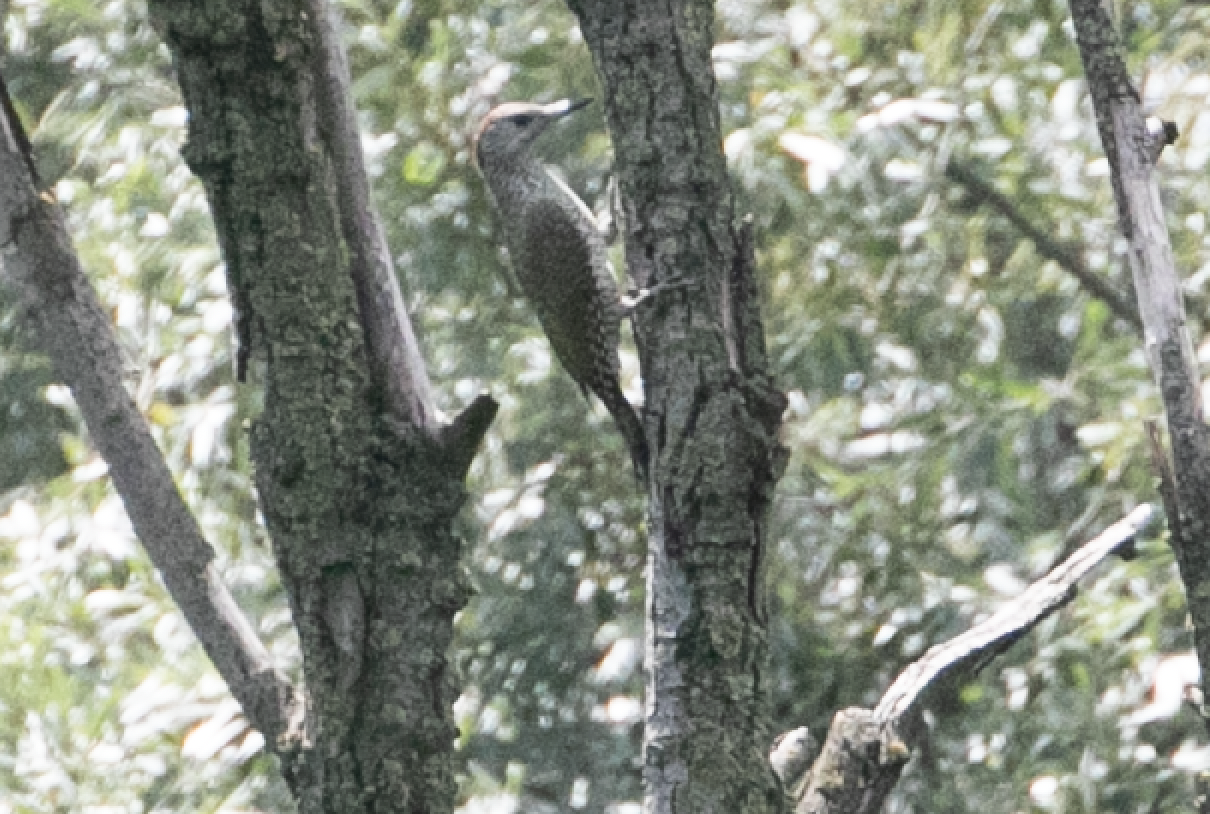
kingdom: Animalia
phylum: Chordata
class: Aves
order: Piciformes
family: Picidae
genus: Picus
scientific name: Picus viridis
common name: European green woodpecker
